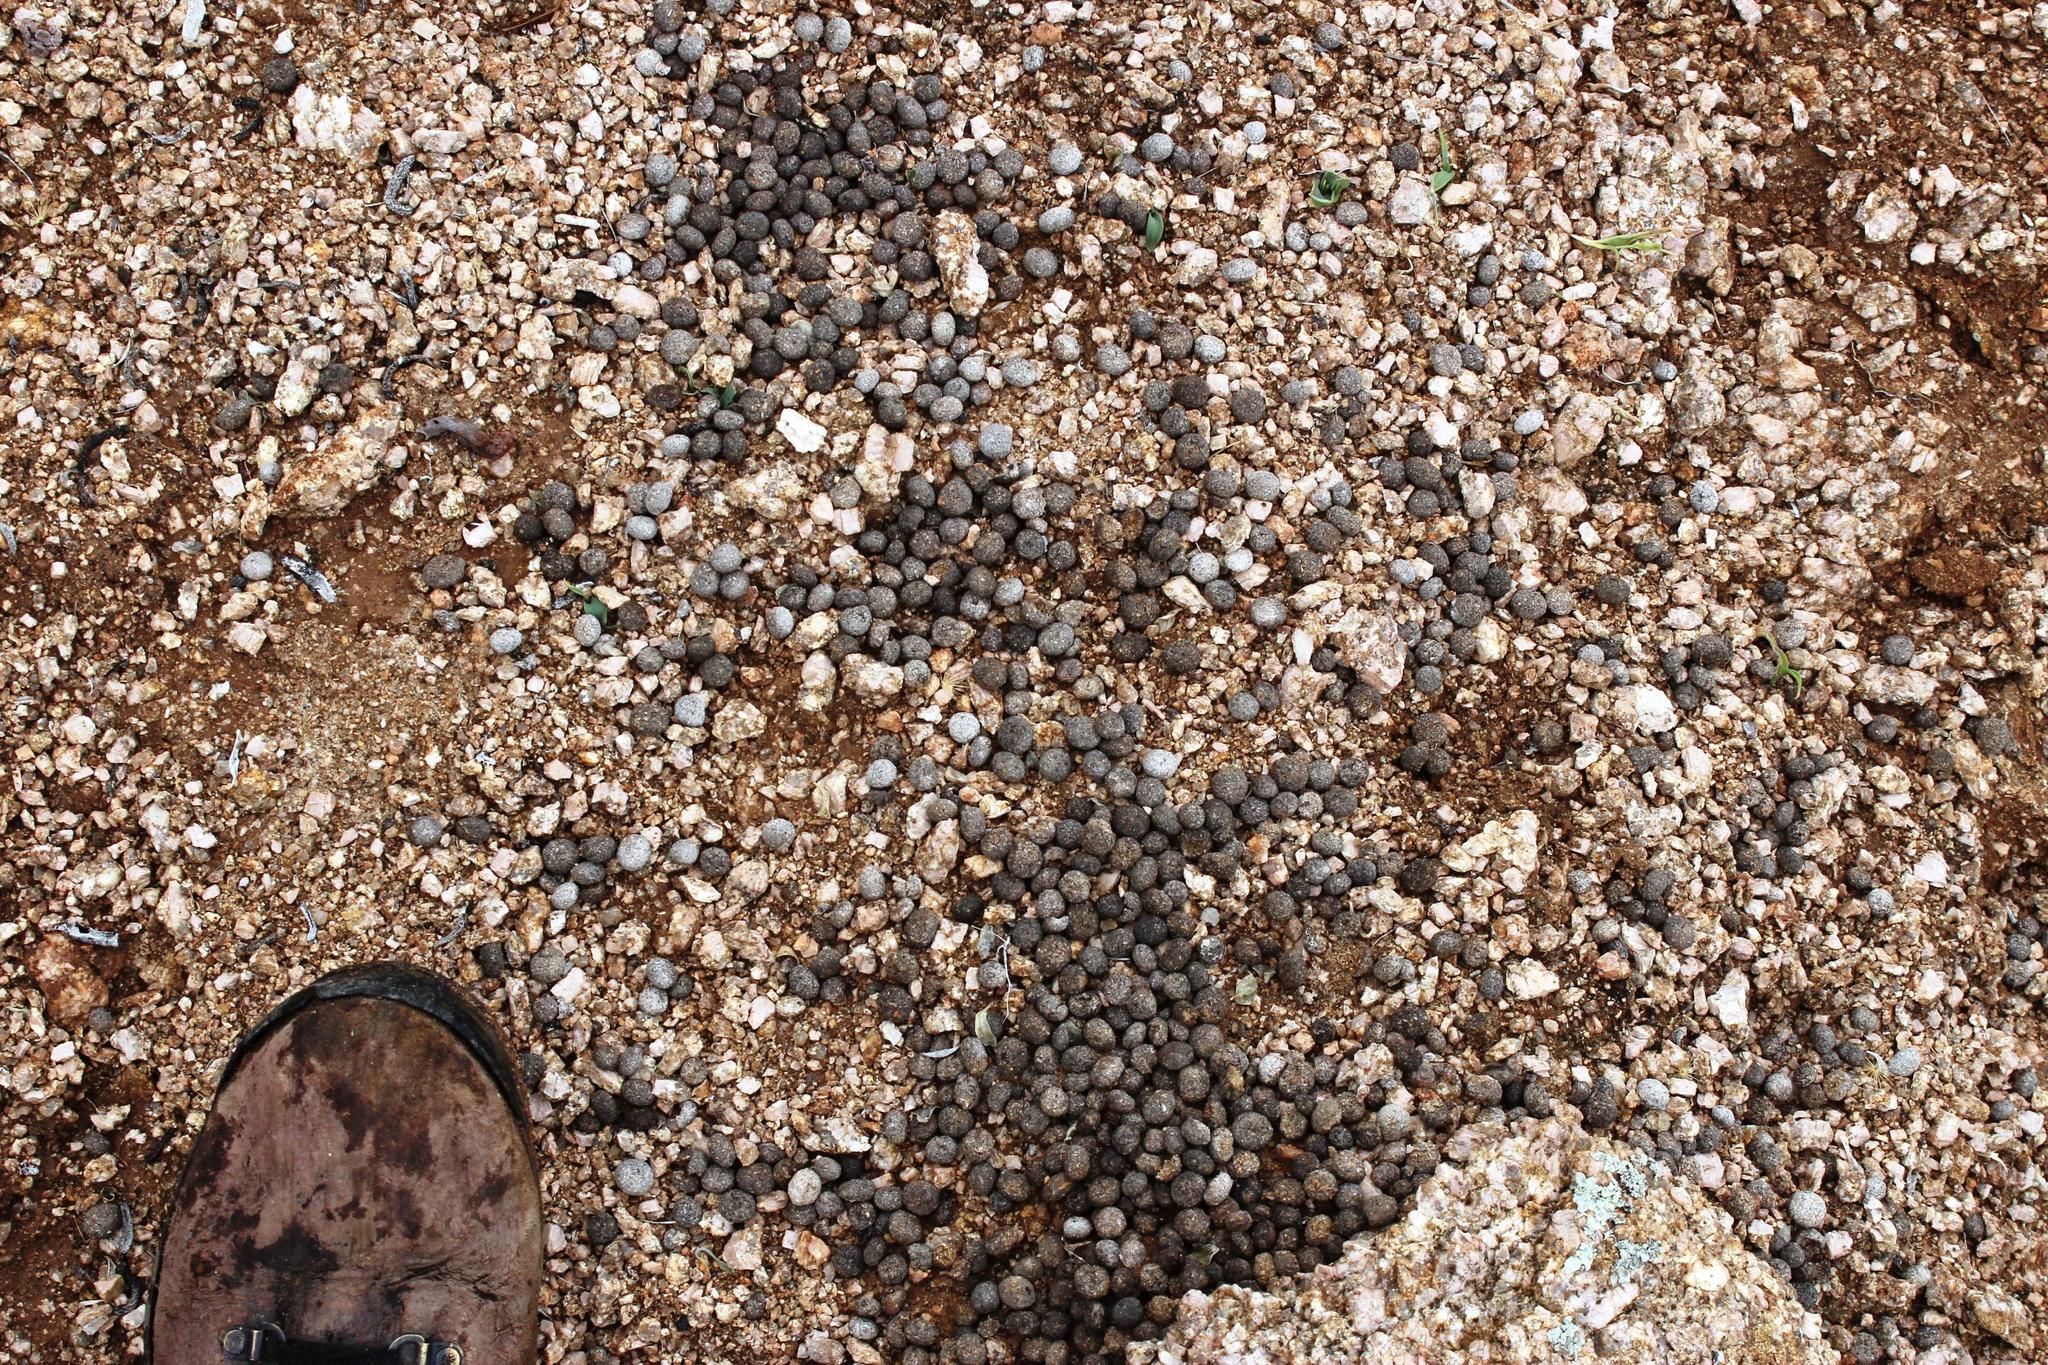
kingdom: Animalia
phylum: Chordata
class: Mammalia
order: Lagomorpha
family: Leporidae
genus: Pronolagus
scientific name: Pronolagus rupestris
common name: Smith's red rock hare
